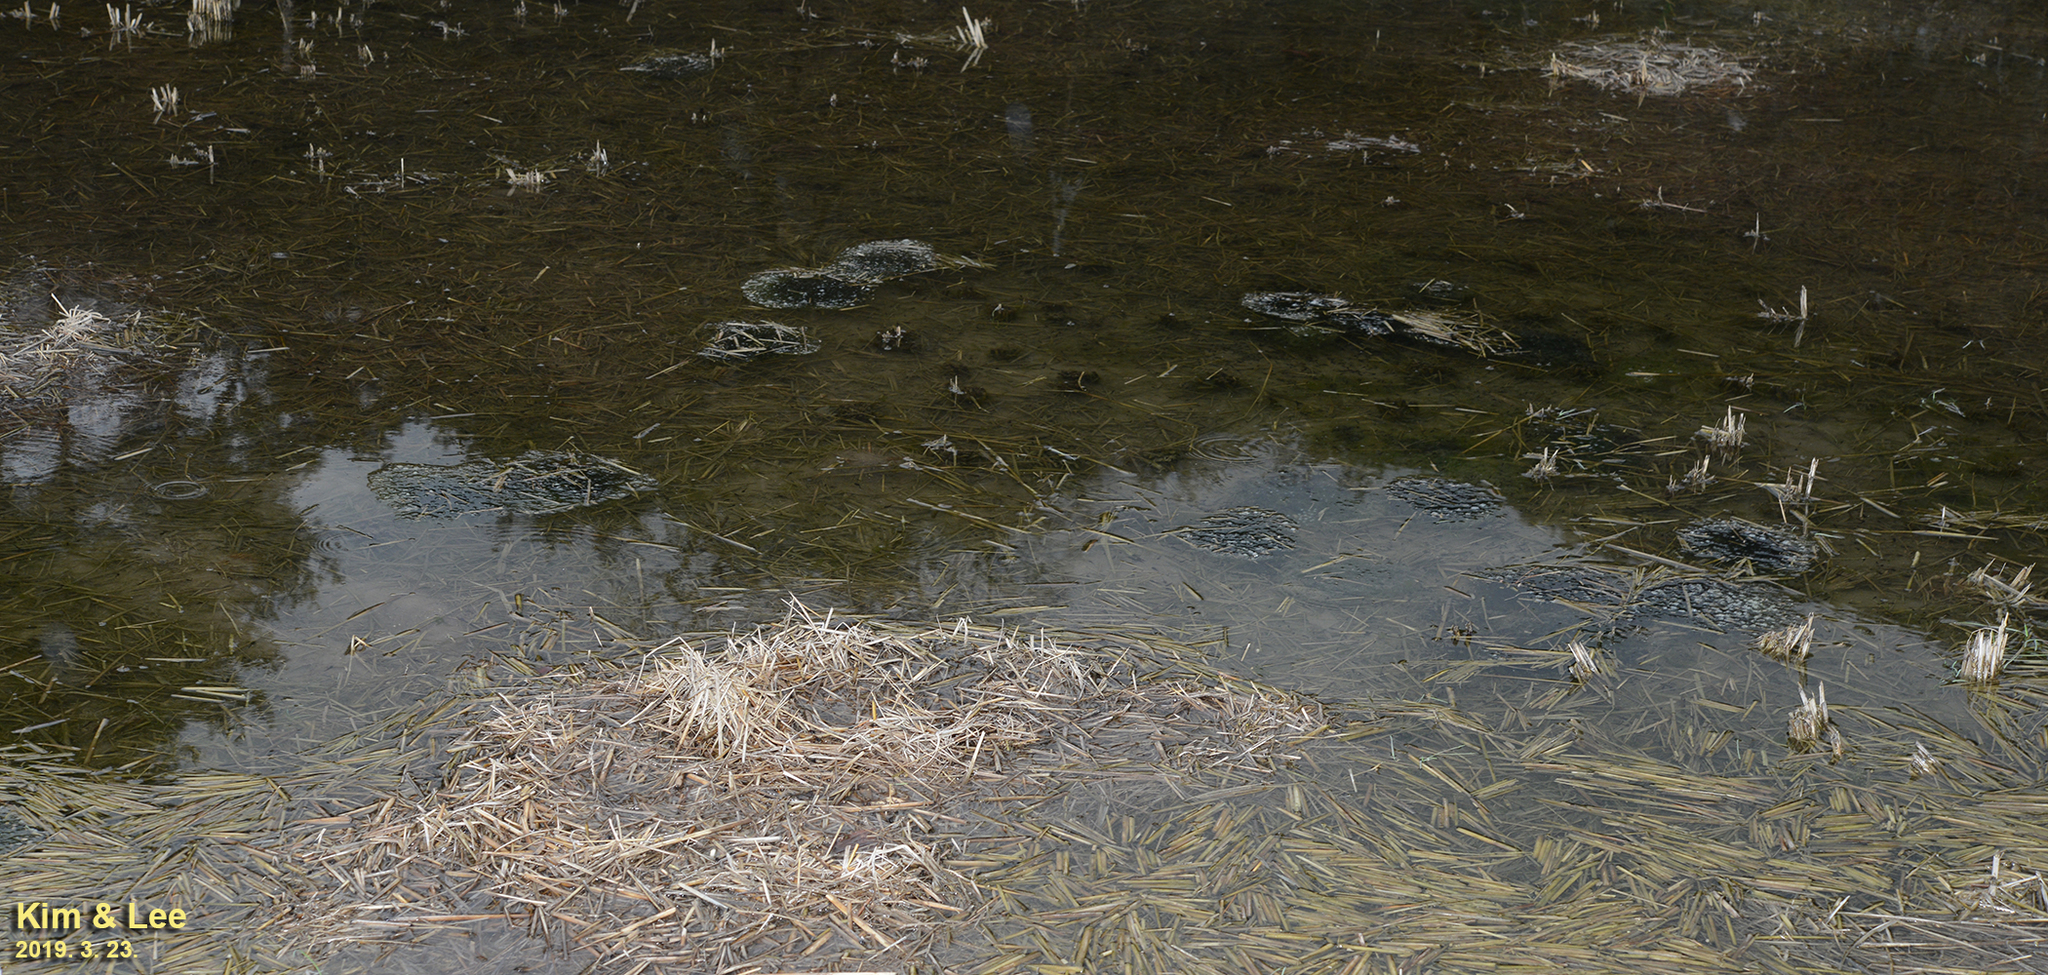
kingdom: Animalia
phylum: Chordata
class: Amphibia
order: Anura
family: Ranidae
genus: Rana
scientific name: Rana uenoi
